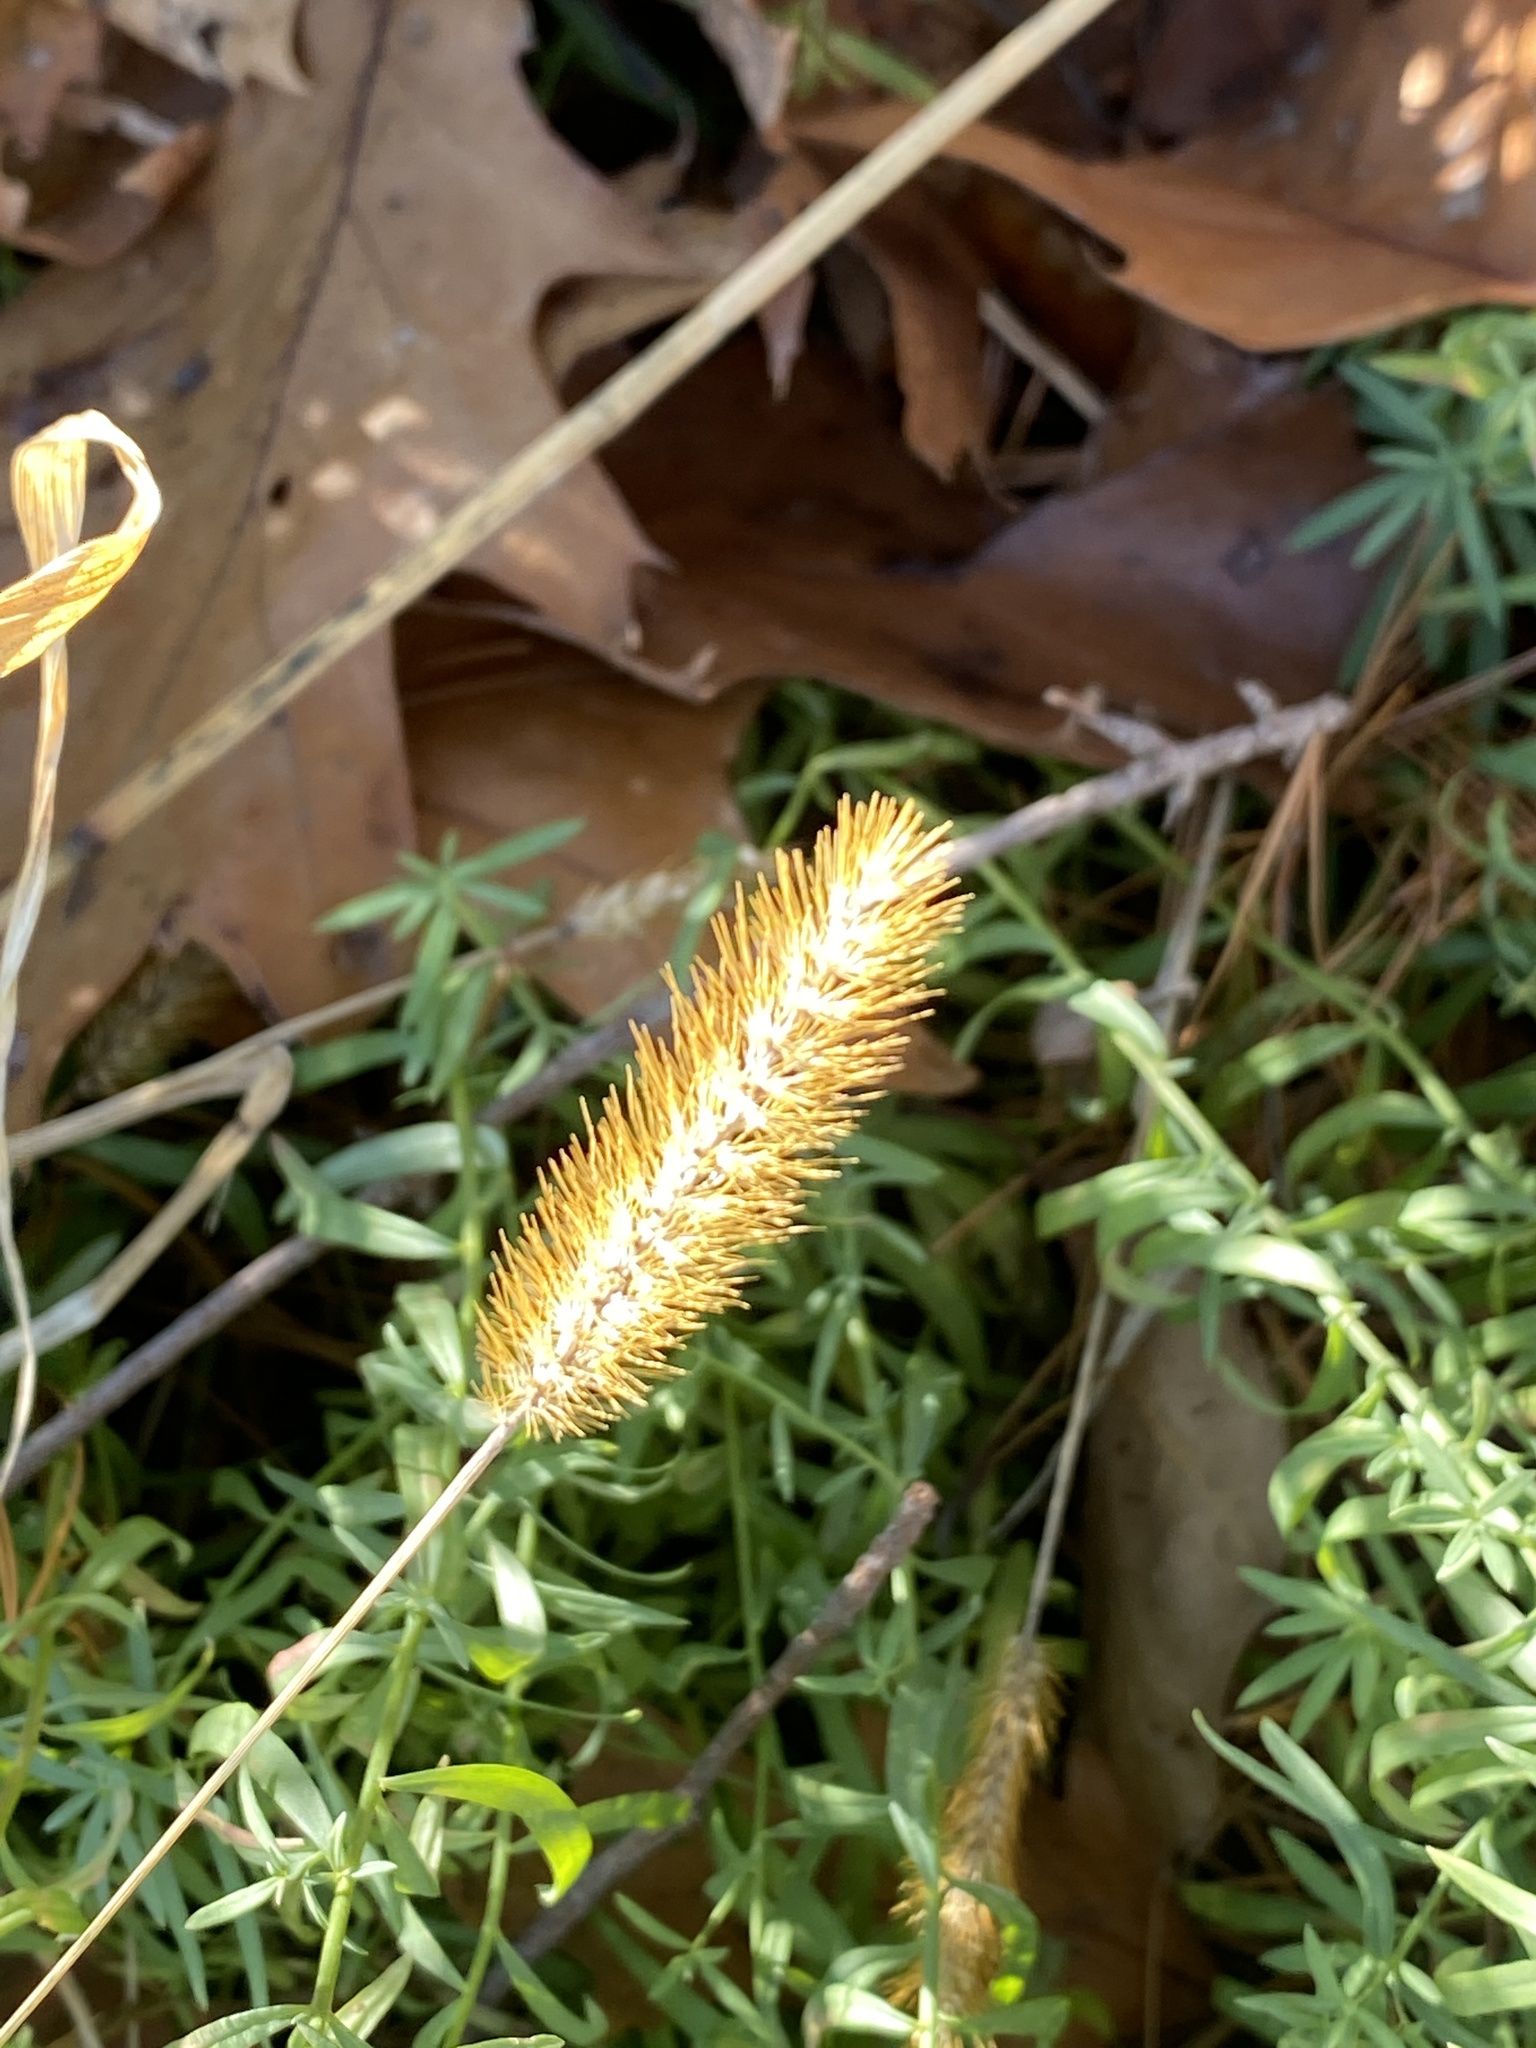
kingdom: Plantae
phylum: Tracheophyta
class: Liliopsida
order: Poales
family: Poaceae
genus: Setaria
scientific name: Setaria pumila
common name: Yellow bristle-grass
